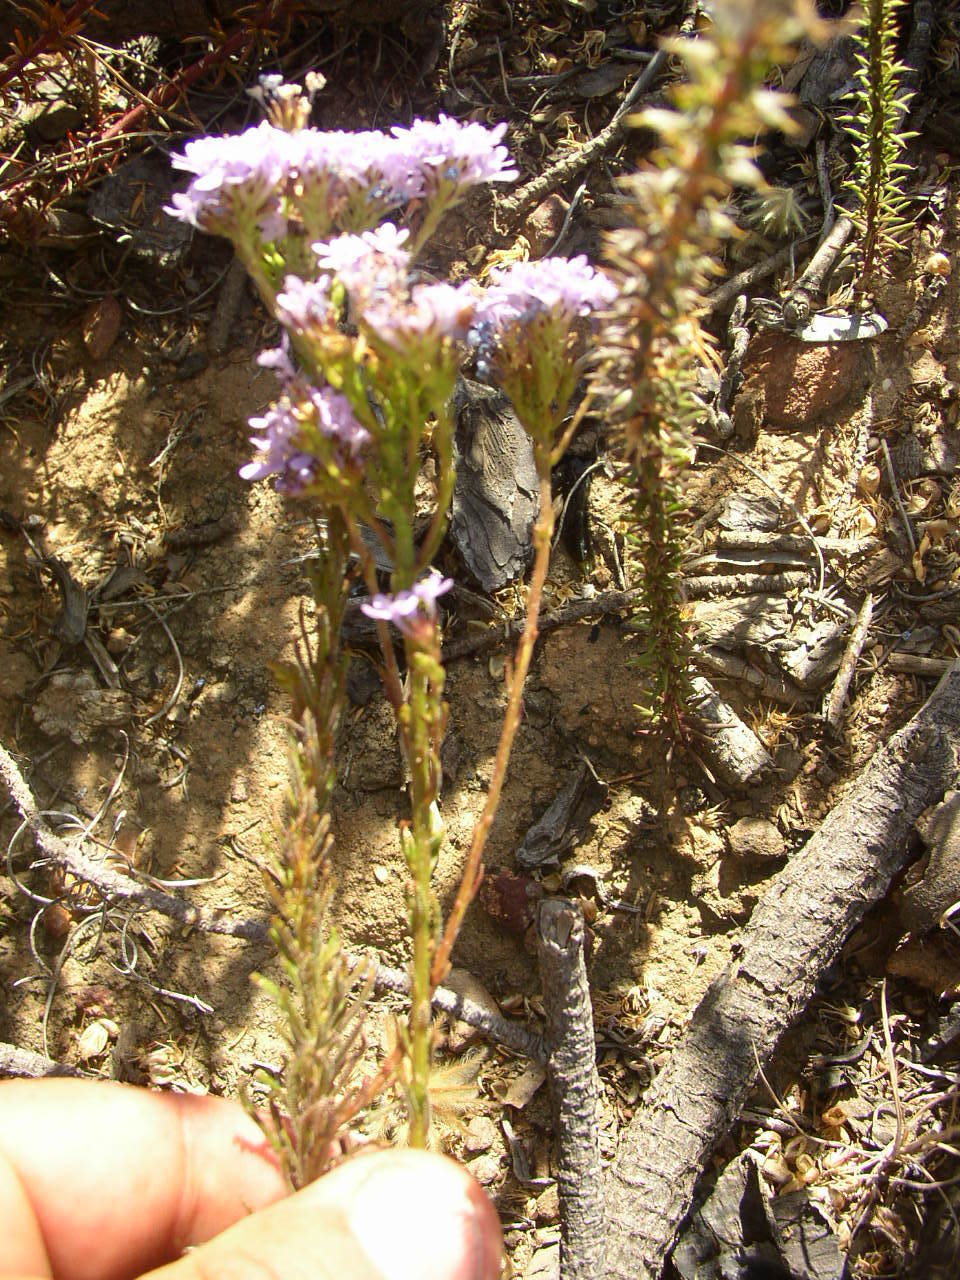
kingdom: Plantae
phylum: Tracheophyta
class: Magnoliopsida
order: Lamiales
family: Scrophulariaceae
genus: Pseudoselago
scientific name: Pseudoselago spuria
